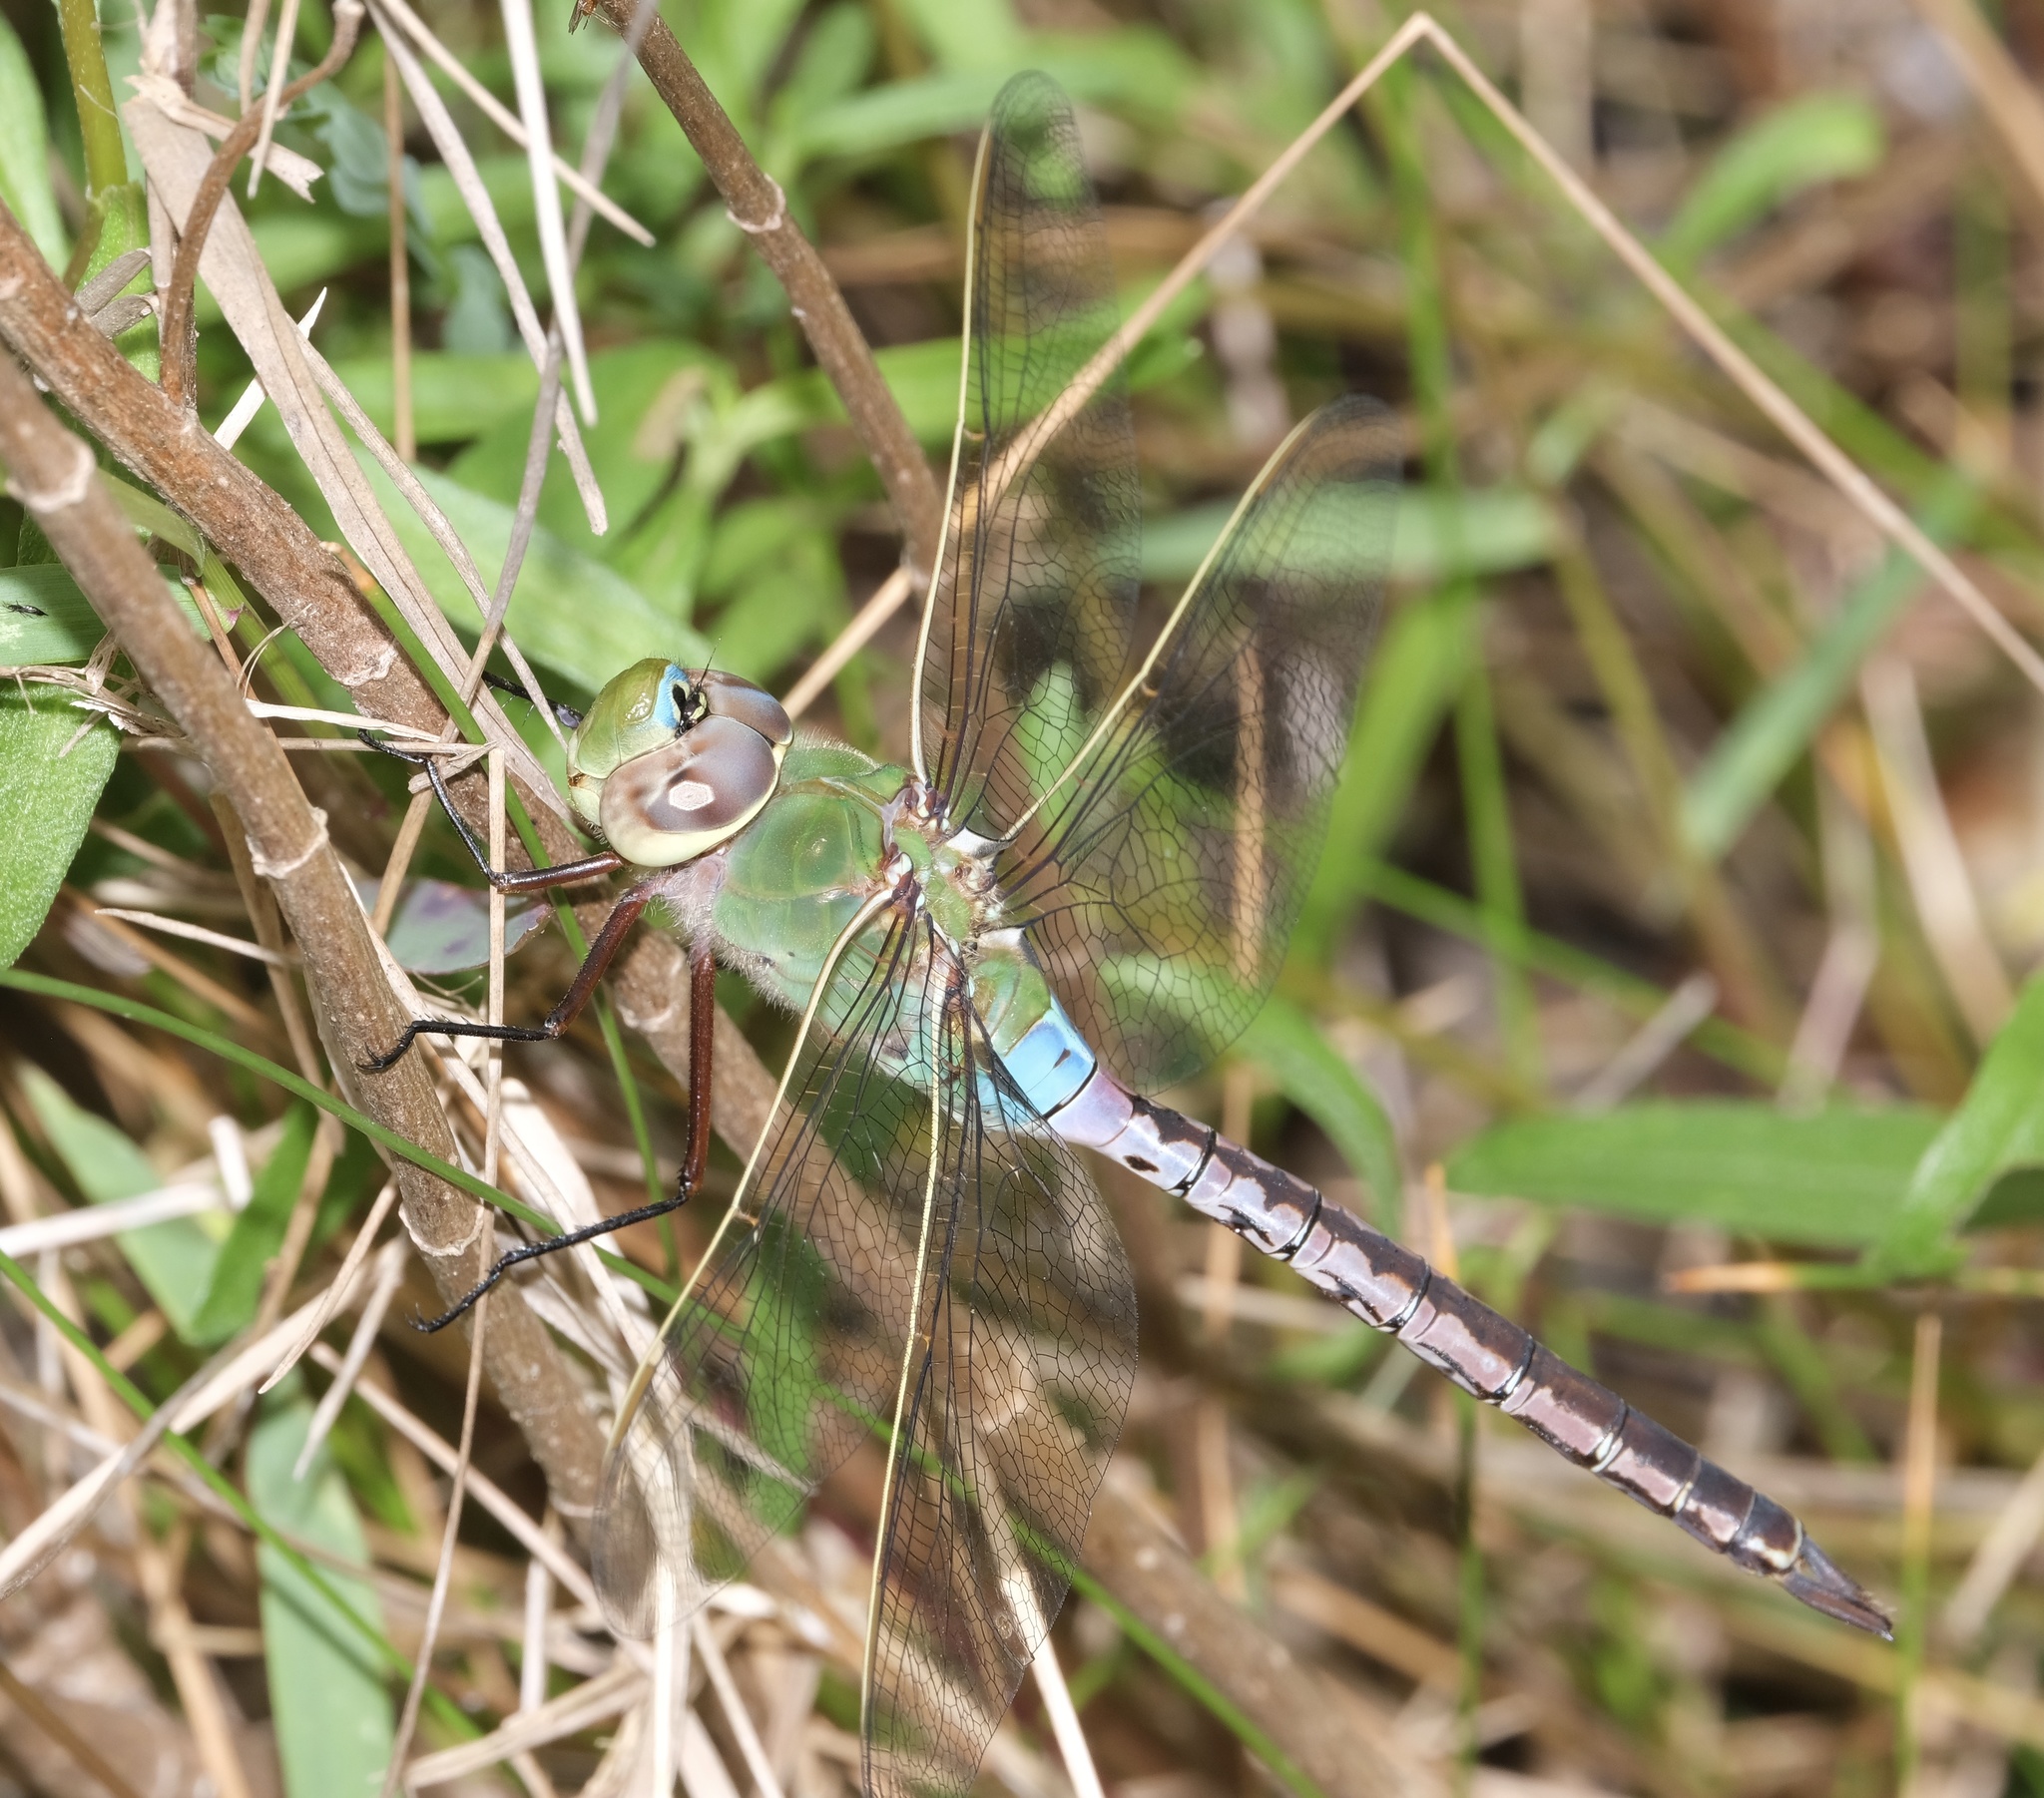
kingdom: Animalia
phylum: Arthropoda
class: Insecta
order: Odonata
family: Aeshnidae
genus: Anax
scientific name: Anax junius
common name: Common green darner
